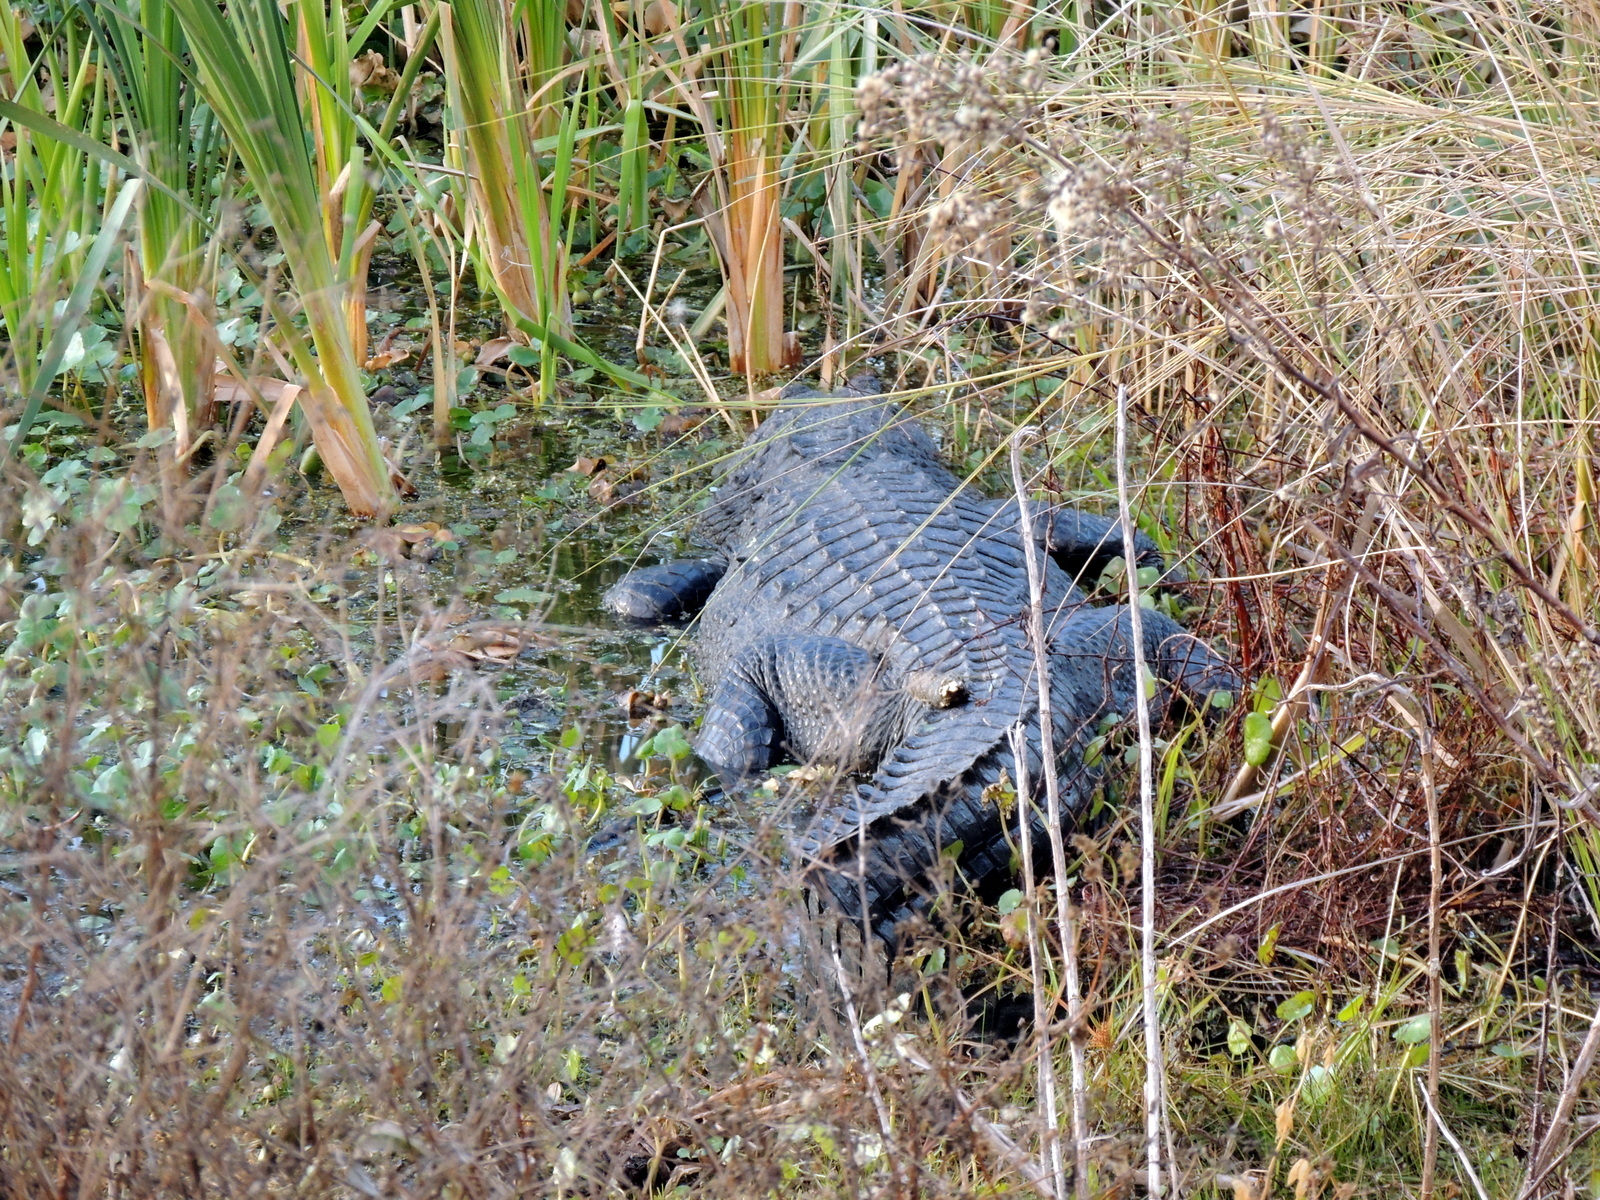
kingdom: Animalia
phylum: Chordata
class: Crocodylia
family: Alligatoridae
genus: Alligator
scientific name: Alligator mississippiensis
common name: American alligator
